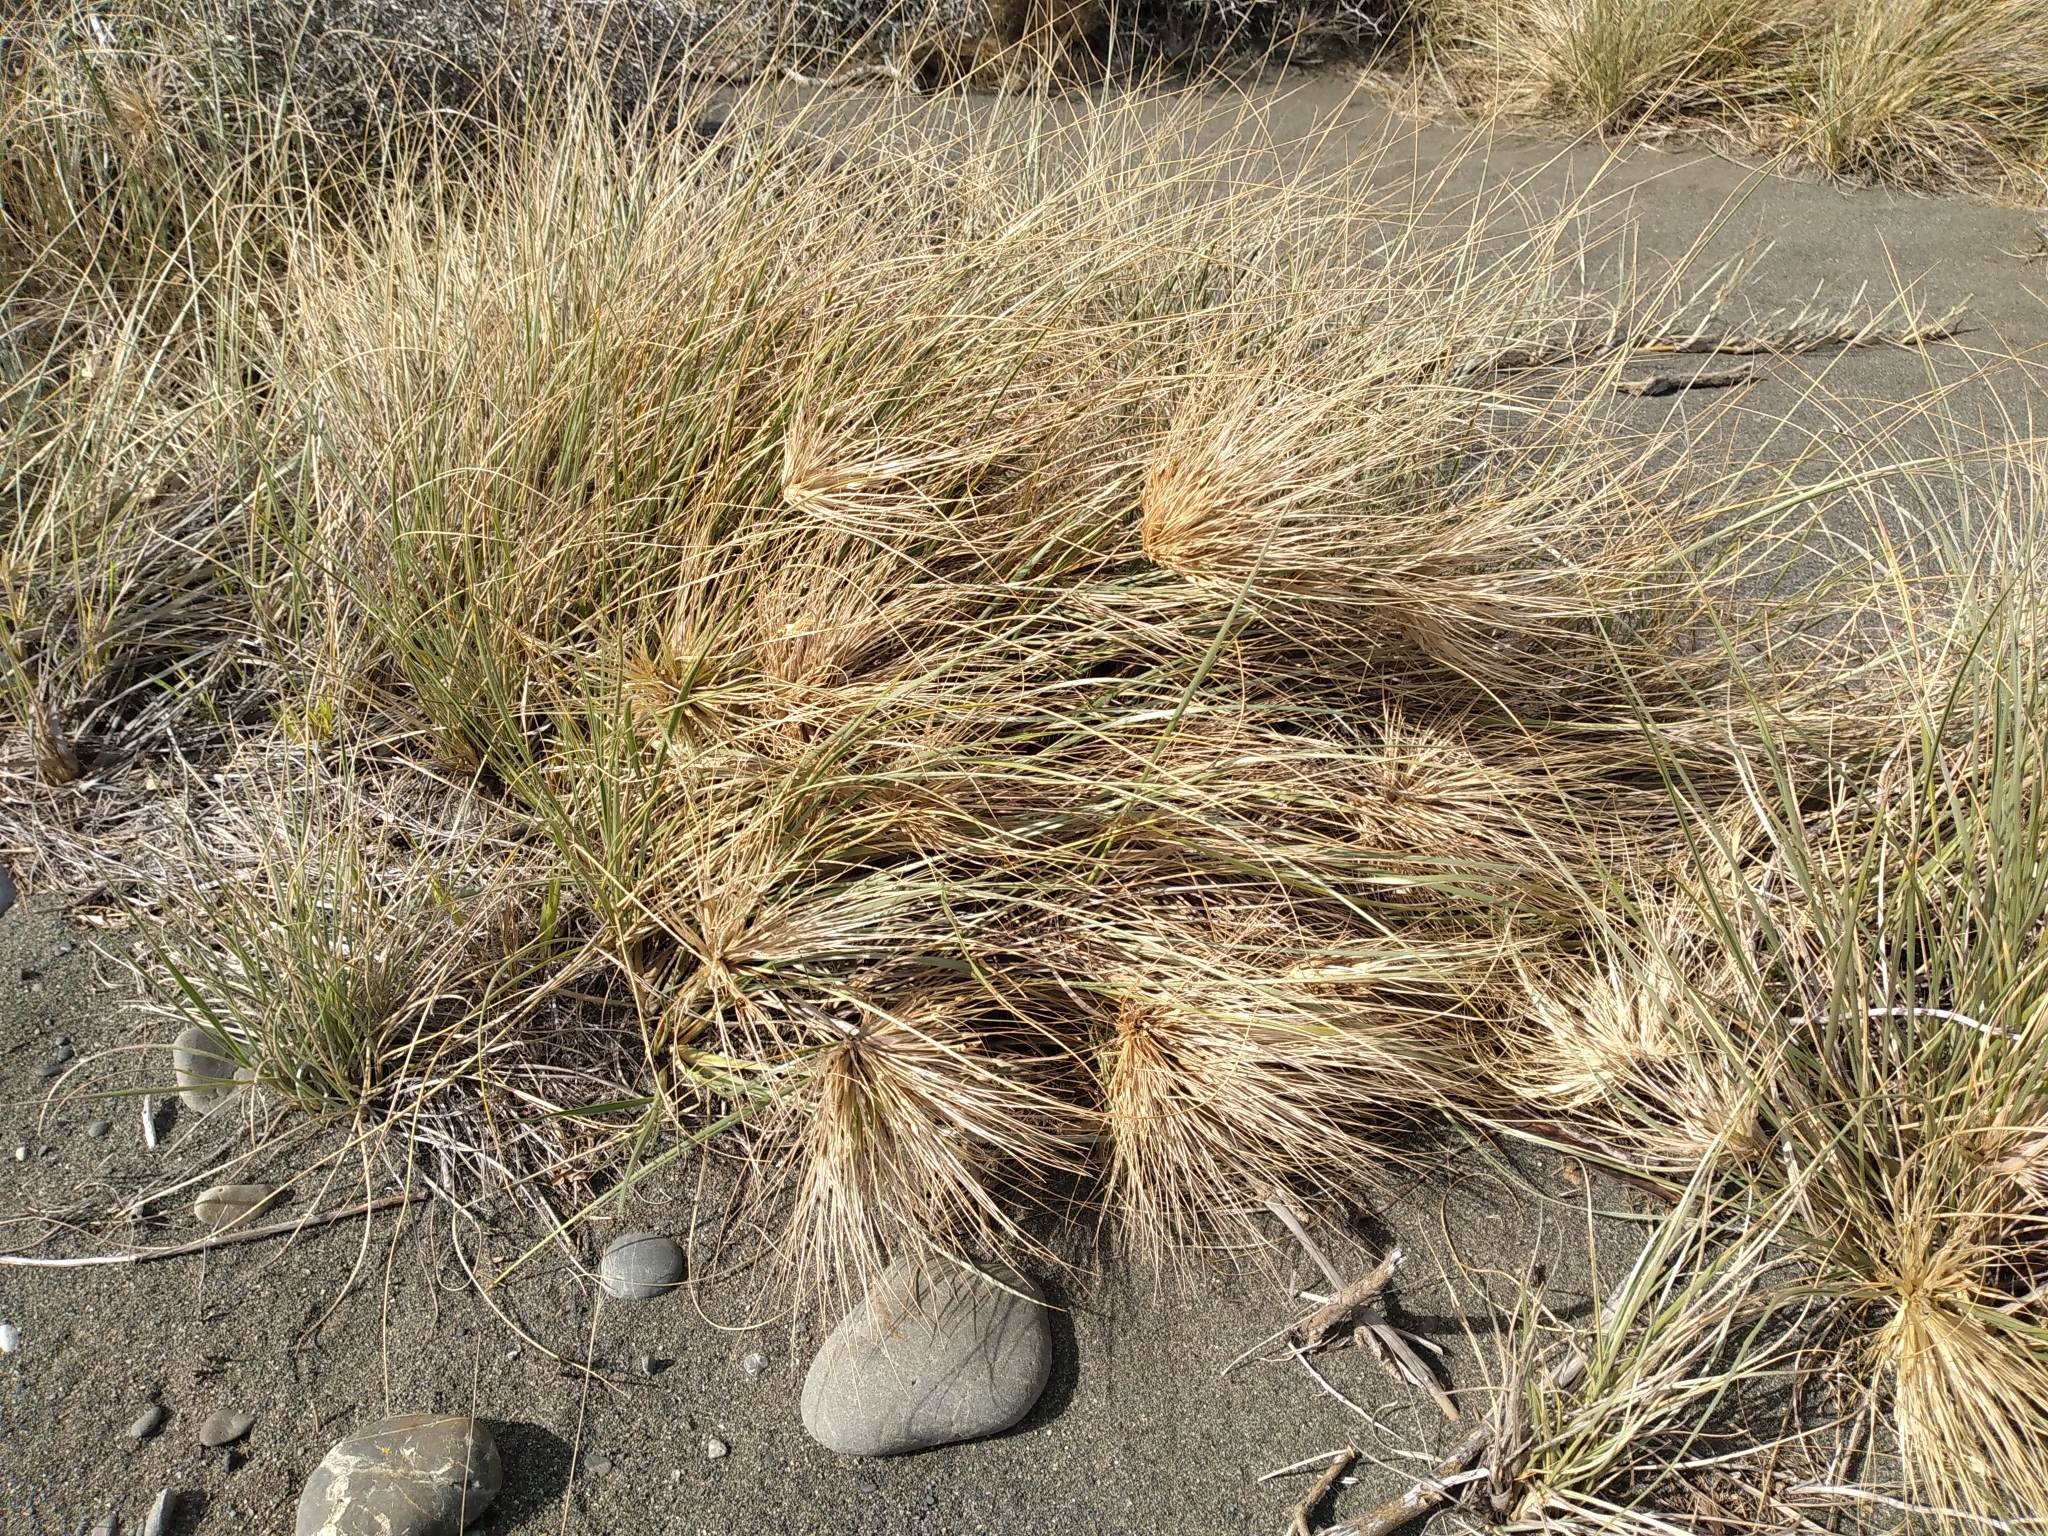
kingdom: Plantae
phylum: Tracheophyta
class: Liliopsida
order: Poales
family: Poaceae
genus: Spinifex
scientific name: Spinifex sericeus
